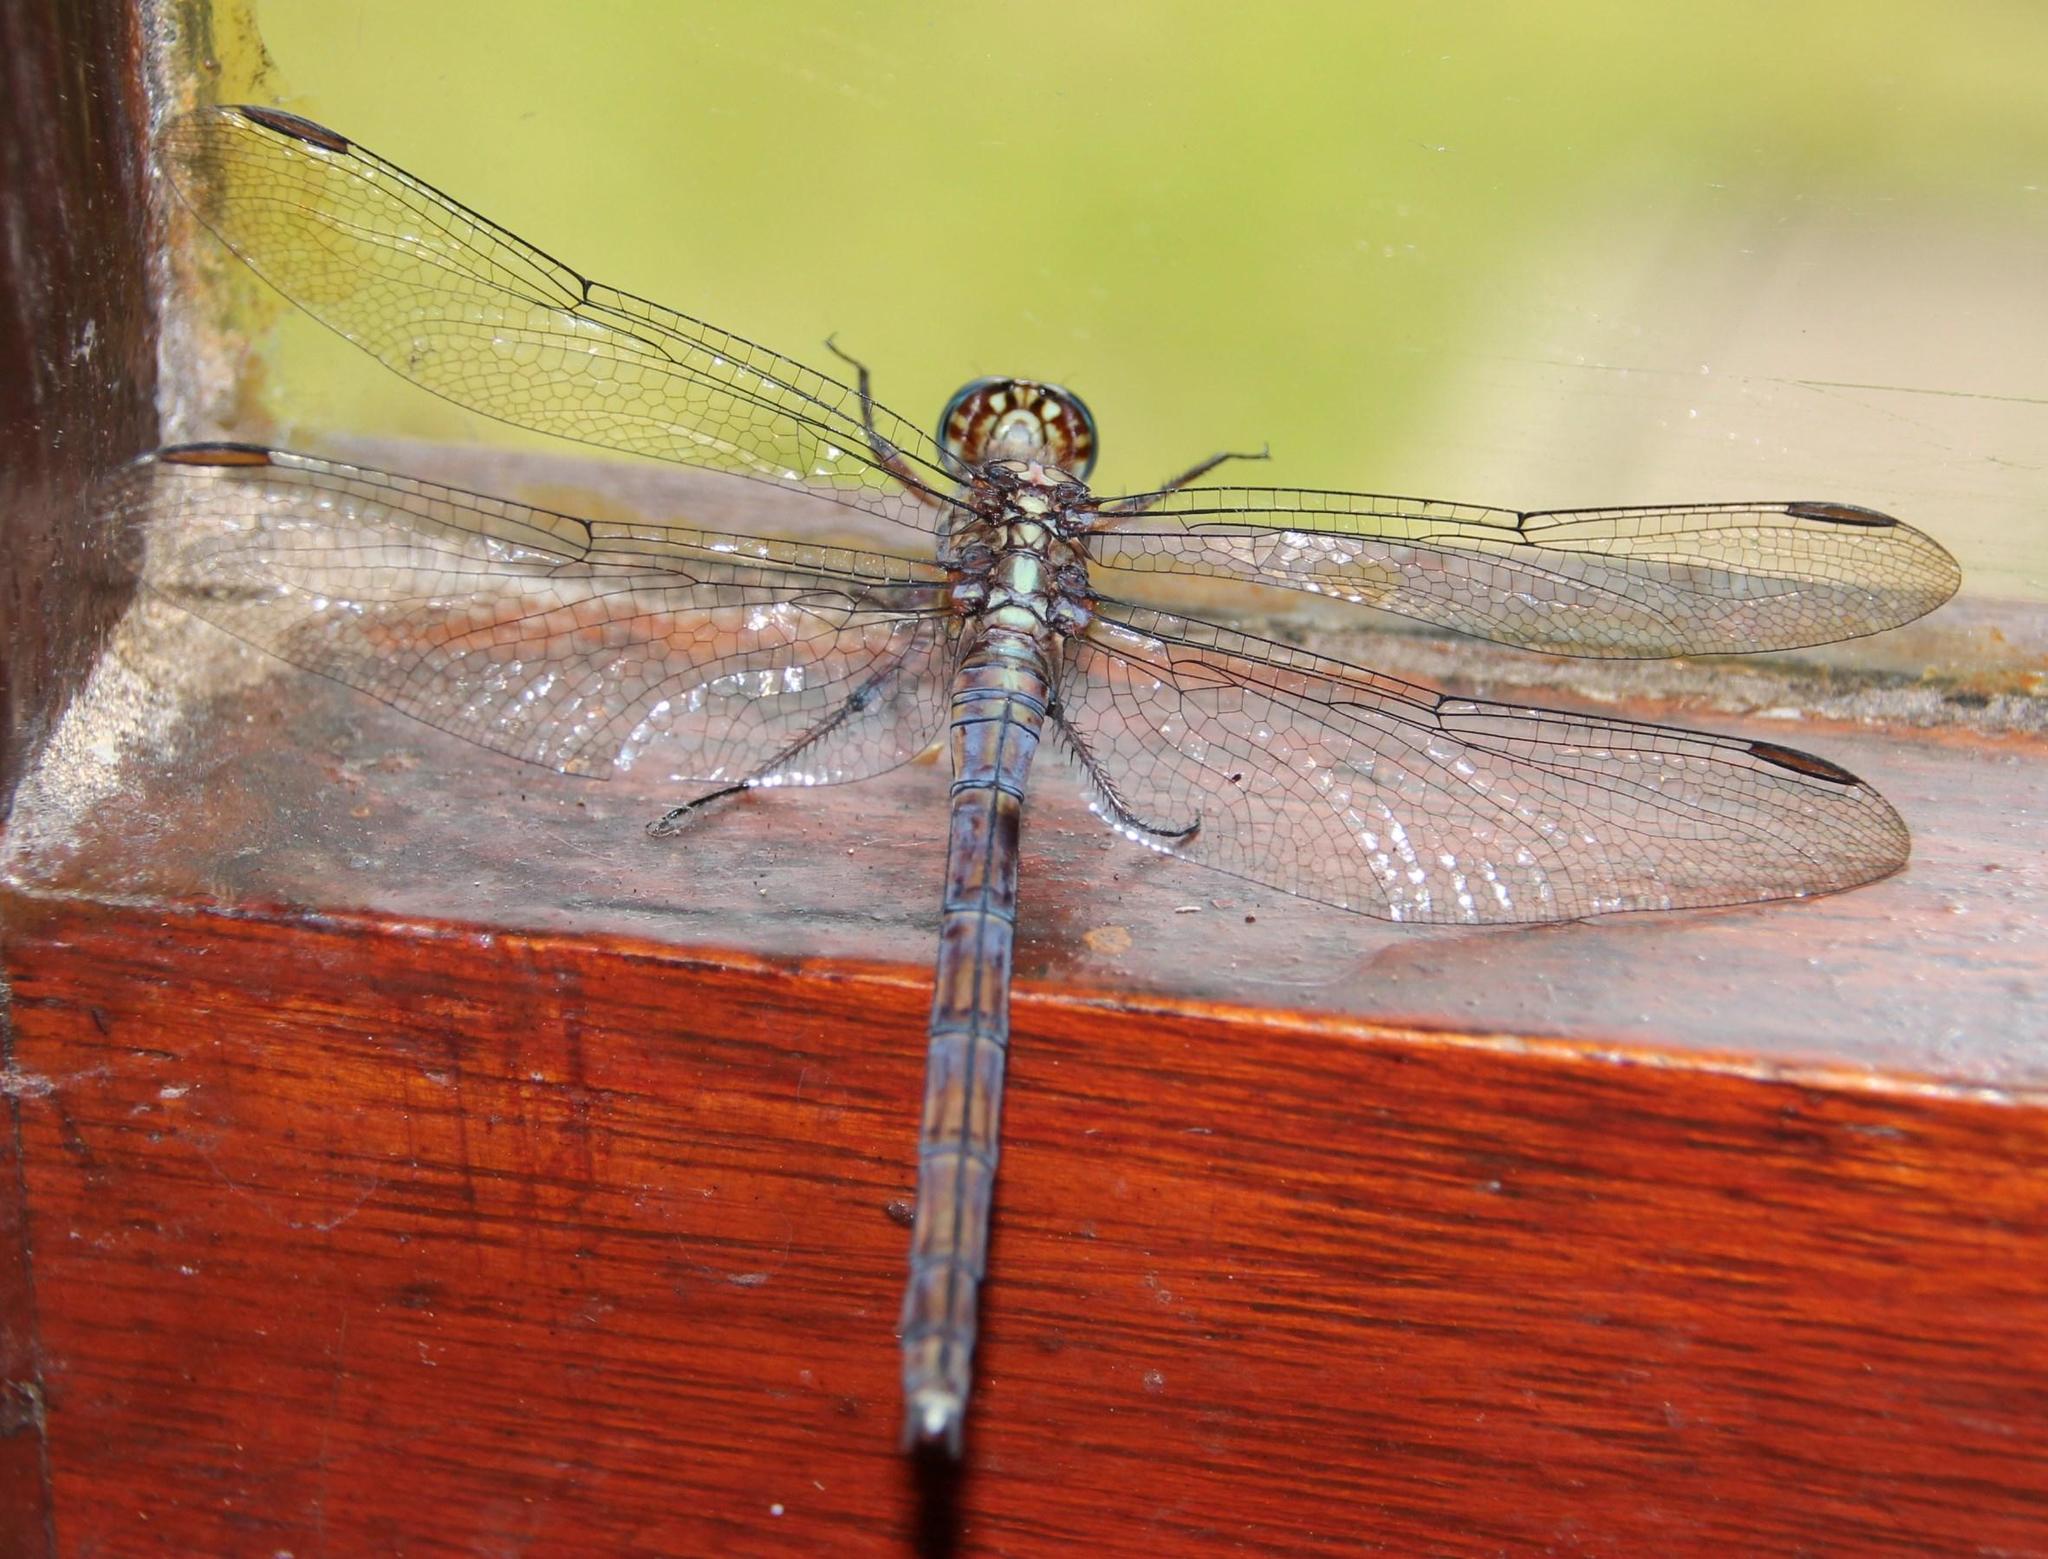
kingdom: Animalia
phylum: Arthropoda
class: Insecta
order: Odonata
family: Libellulidae
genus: Orthetrum
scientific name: Orthetrum julia
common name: Julia skimmer
